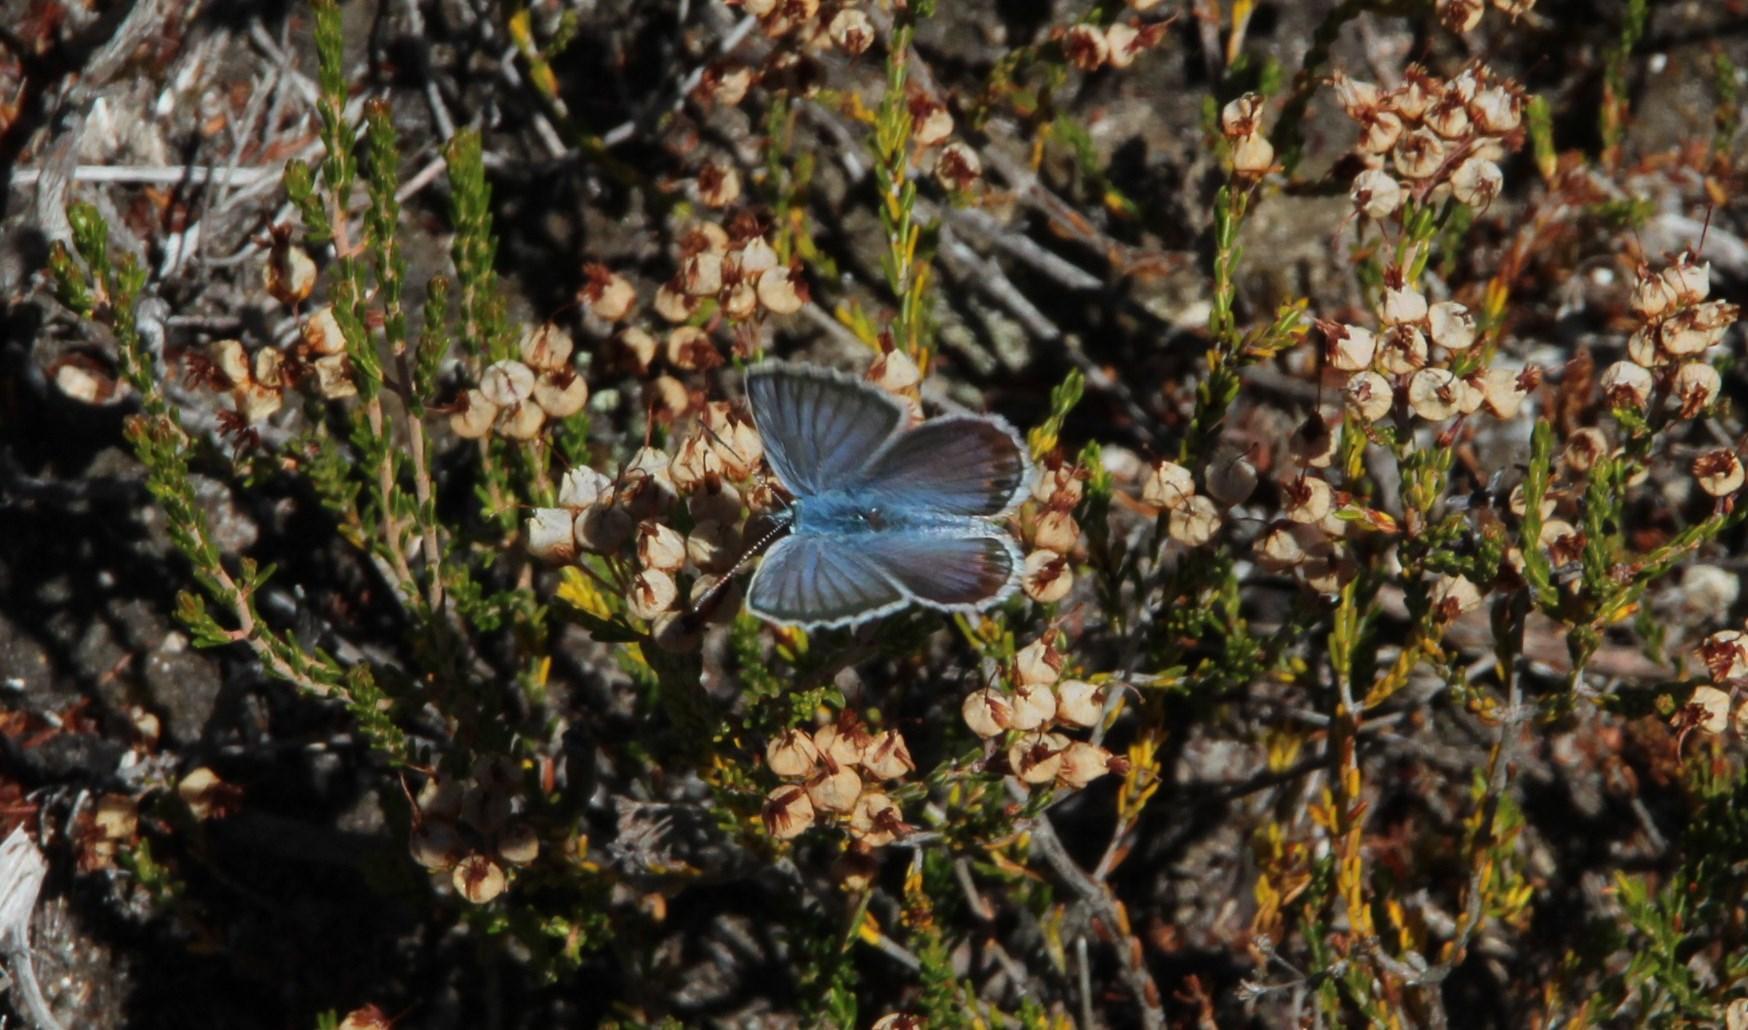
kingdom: Animalia
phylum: Arthropoda
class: Insecta
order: Lepidoptera
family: Lycaenidae
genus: Plebejus
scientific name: Plebejus argus
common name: Silver-studded blue
